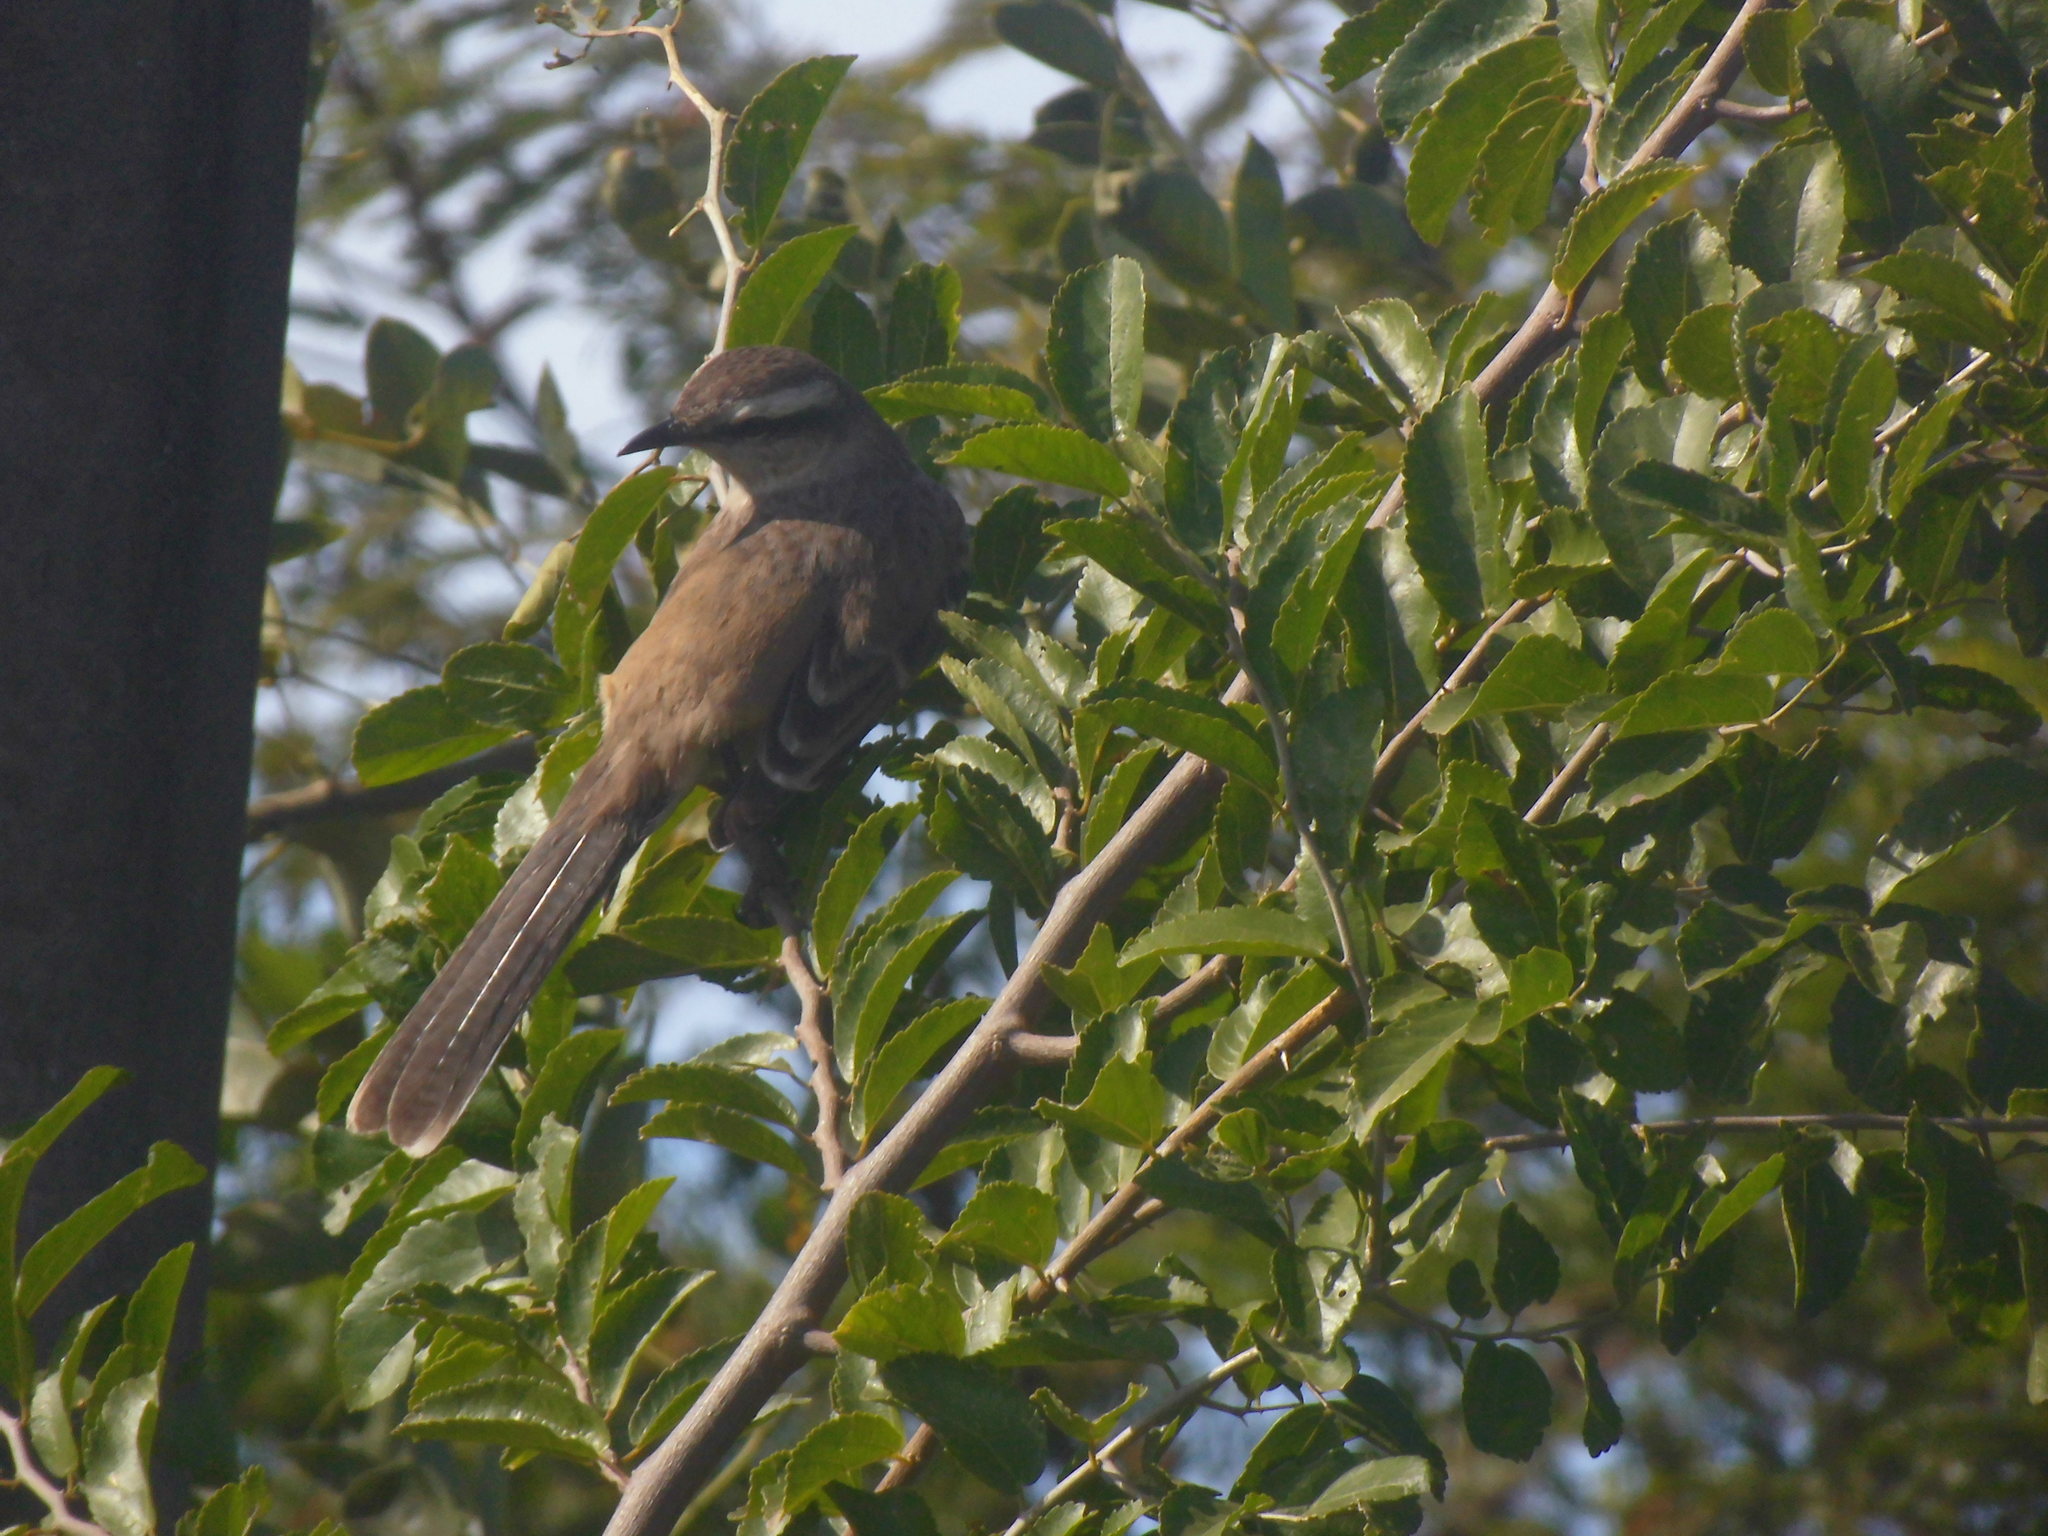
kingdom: Animalia
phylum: Chordata
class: Aves
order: Passeriformes
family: Mimidae
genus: Mimus
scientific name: Mimus saturninus
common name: Chalk-browed mockingbird
